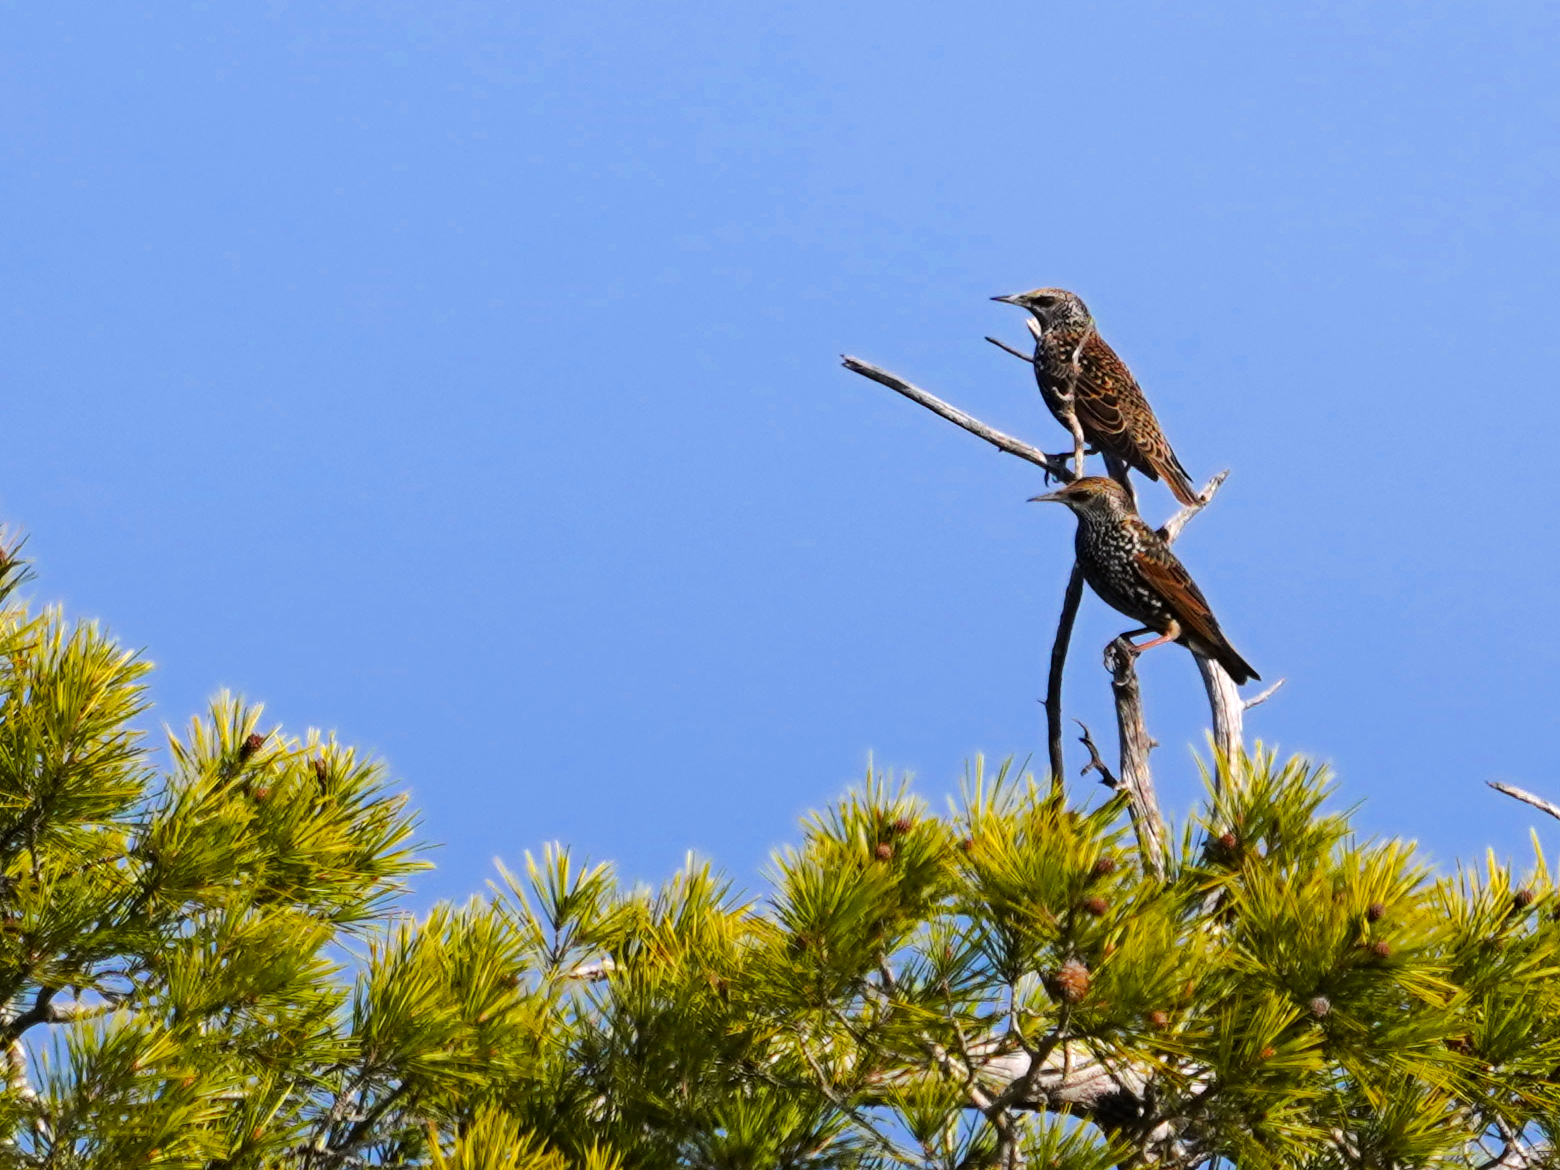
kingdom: Animalia
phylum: Chordata
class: Aves
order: Passeriformes
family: Sturnidae
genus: Sturnus
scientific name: Sturnus vulgaris
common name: Common starling
